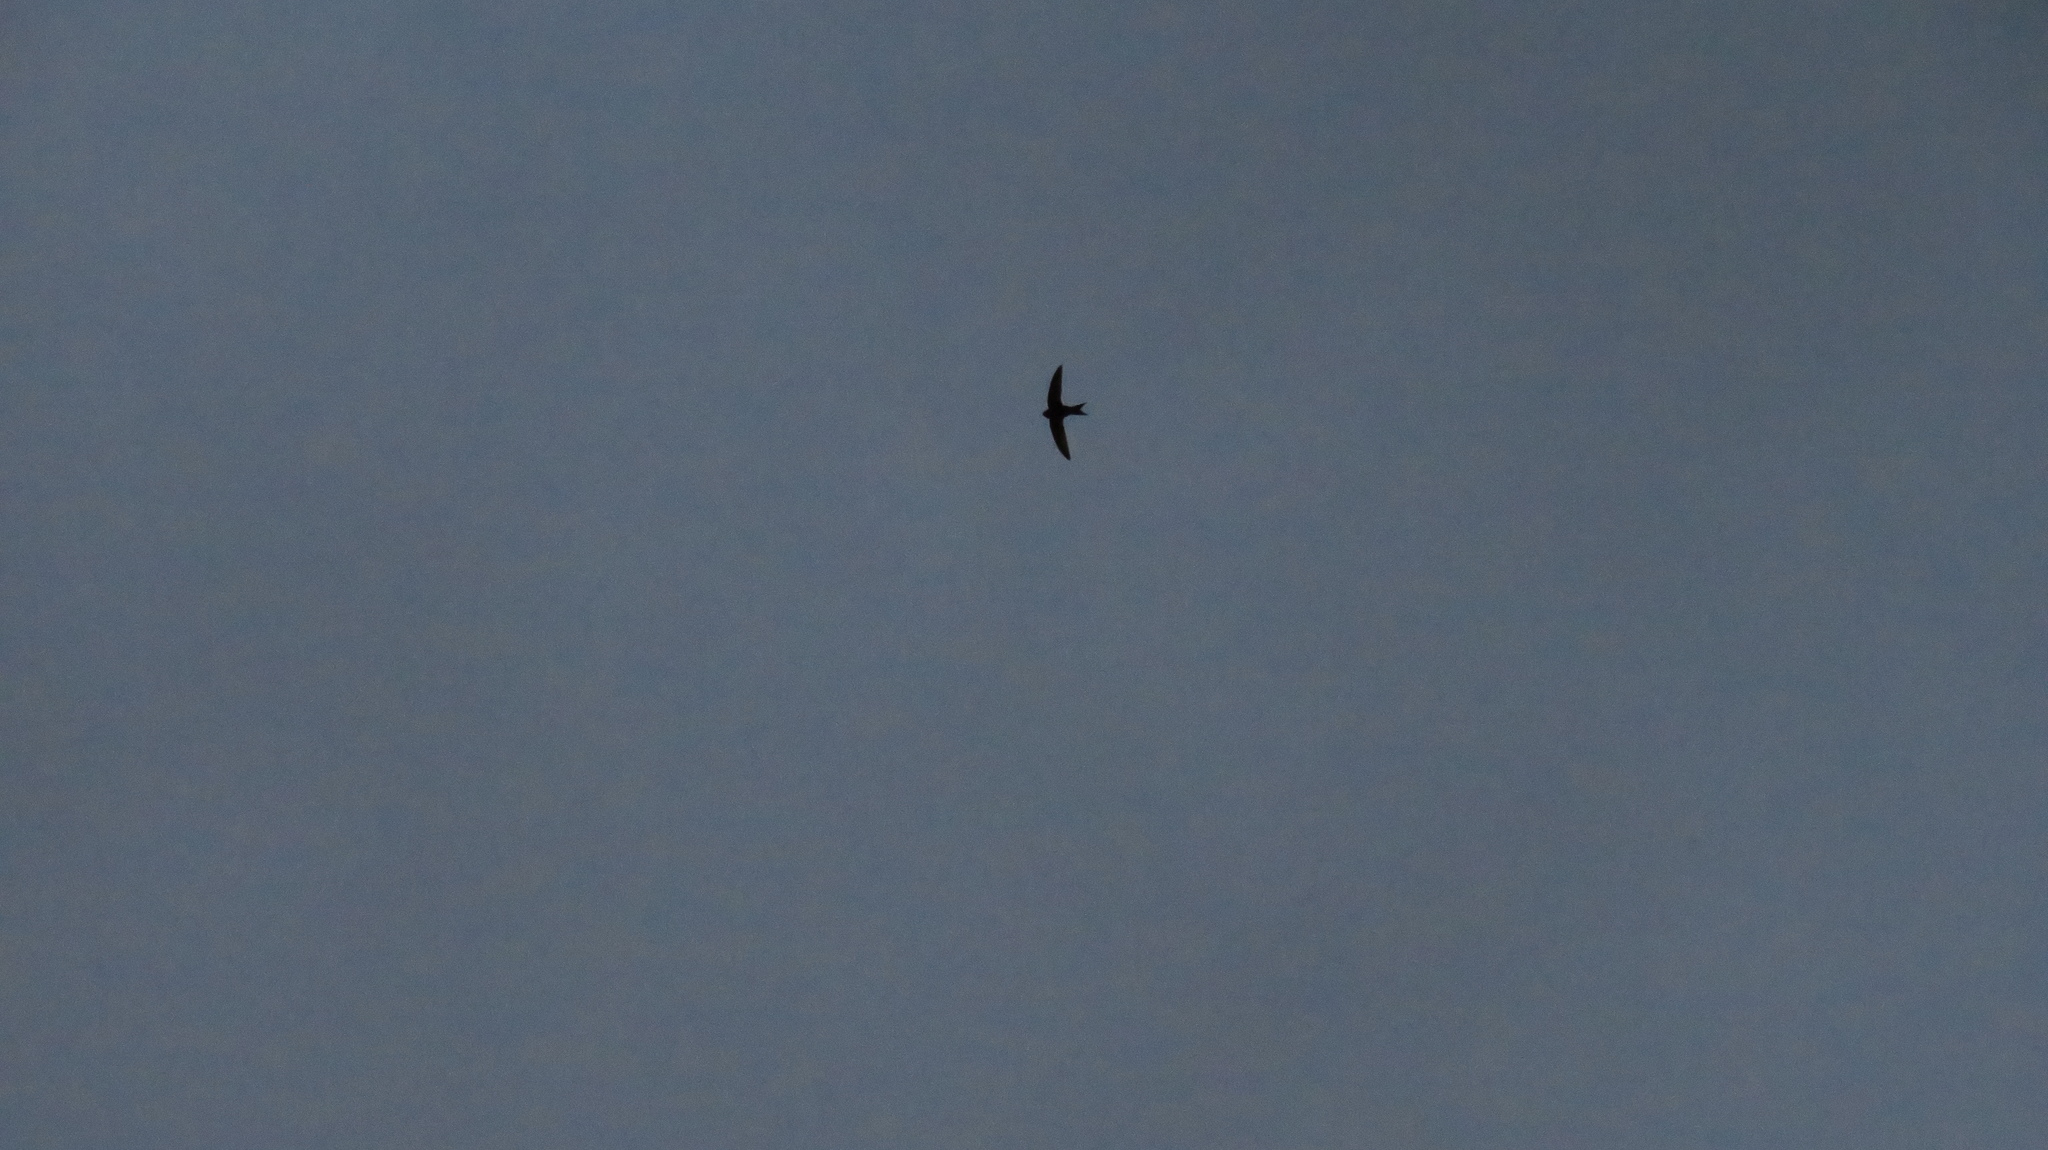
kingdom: Animalia
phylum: Chordata
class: Aves
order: Apodiformes
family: Apodidae
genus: Apus
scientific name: Apus apus
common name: Common swift
